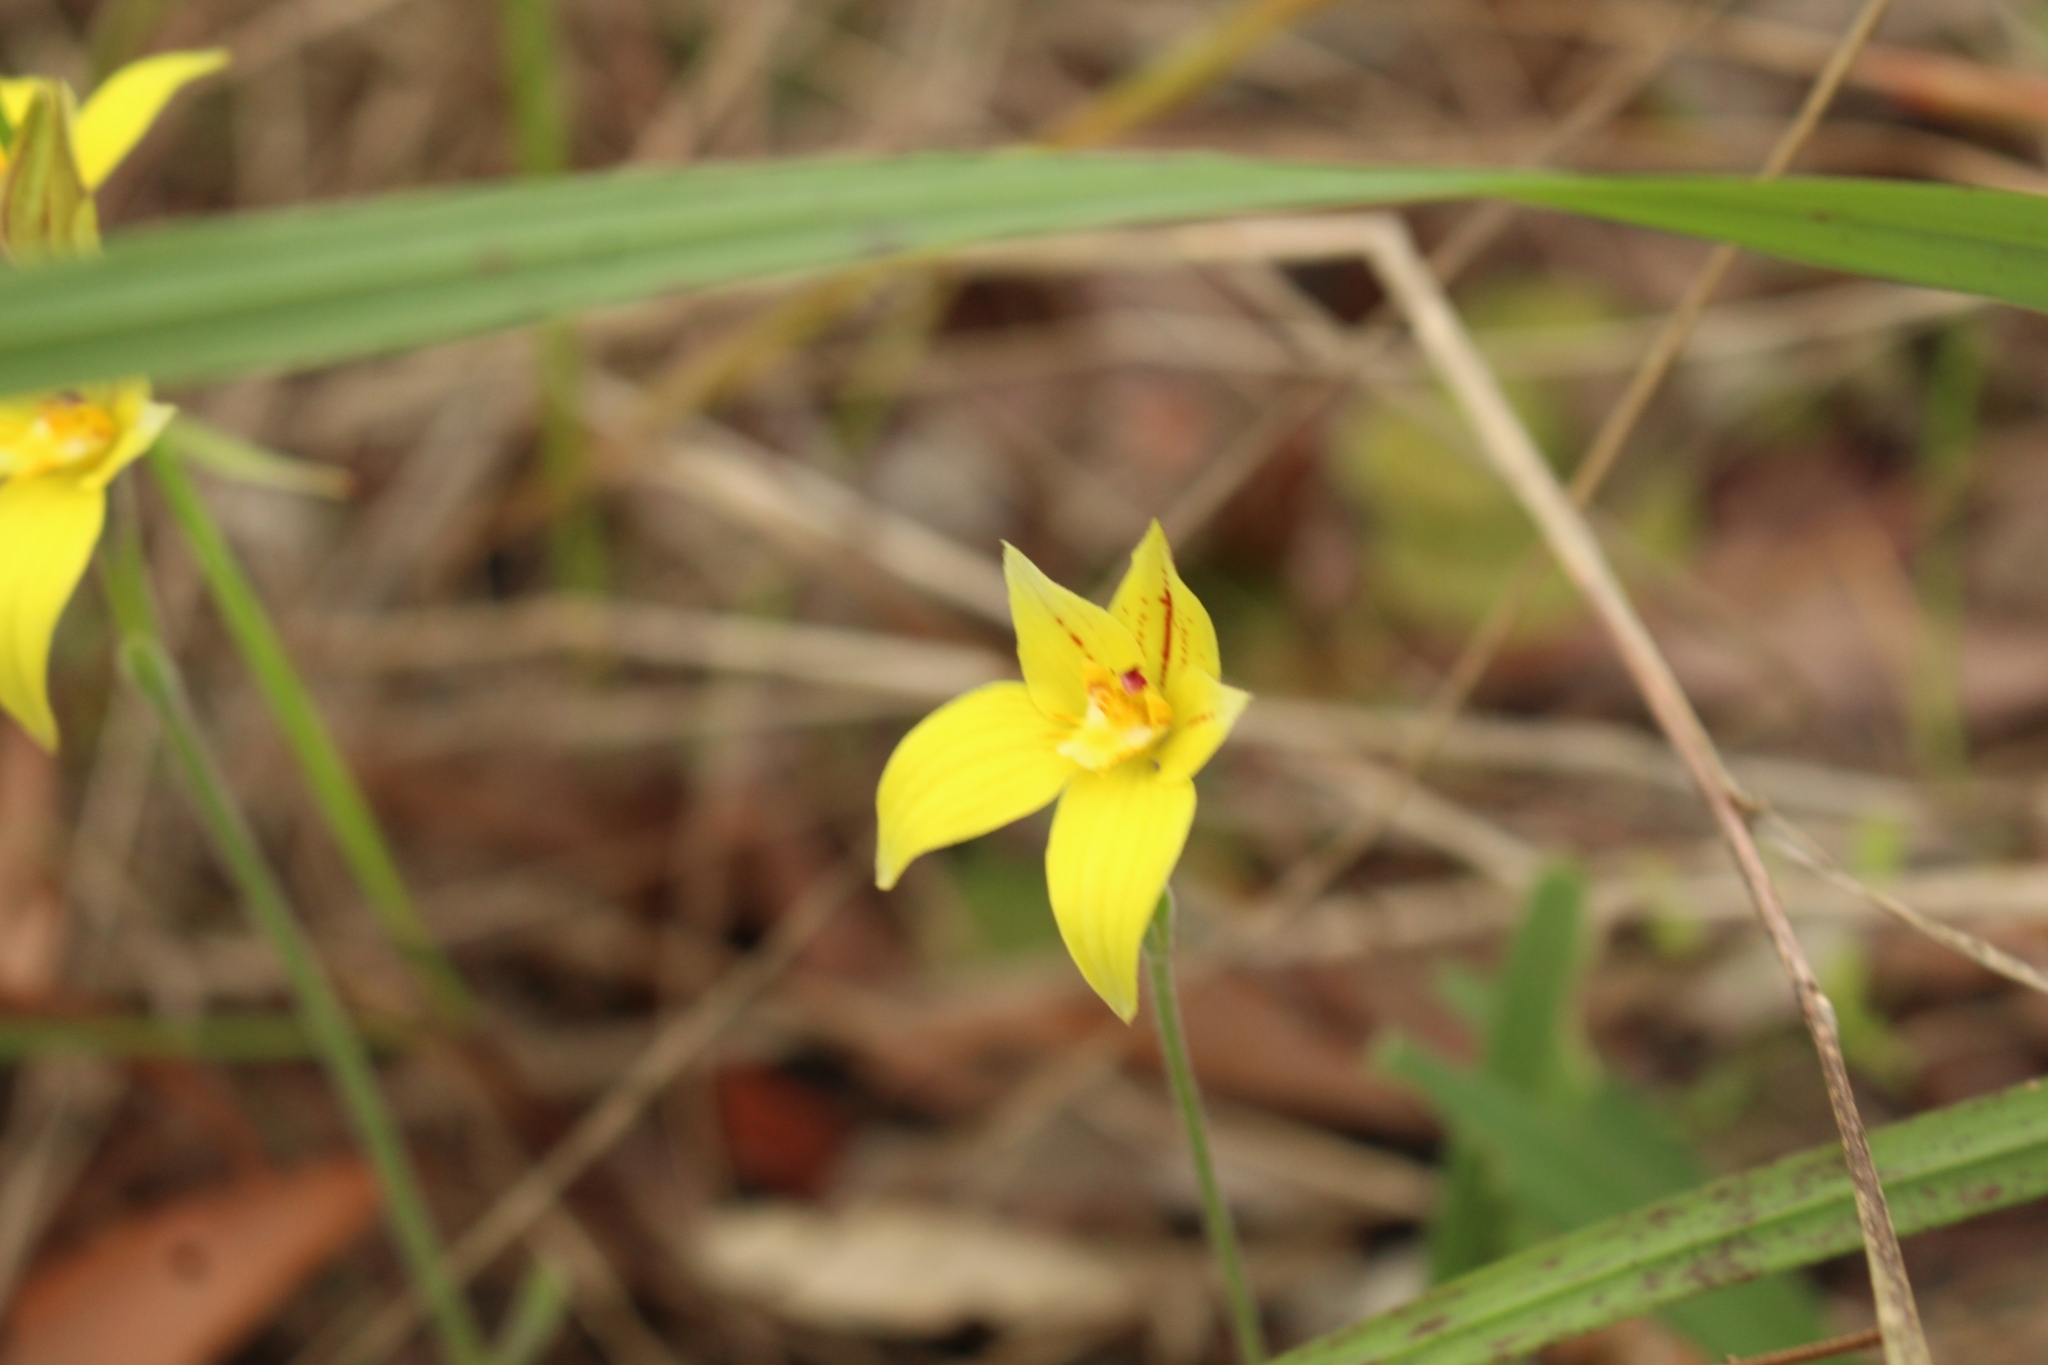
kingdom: Plantae
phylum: Tracheophyta
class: Liliopsida
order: Asparagales
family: Orchidaceae
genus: Caladenia
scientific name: Caladenia flava
